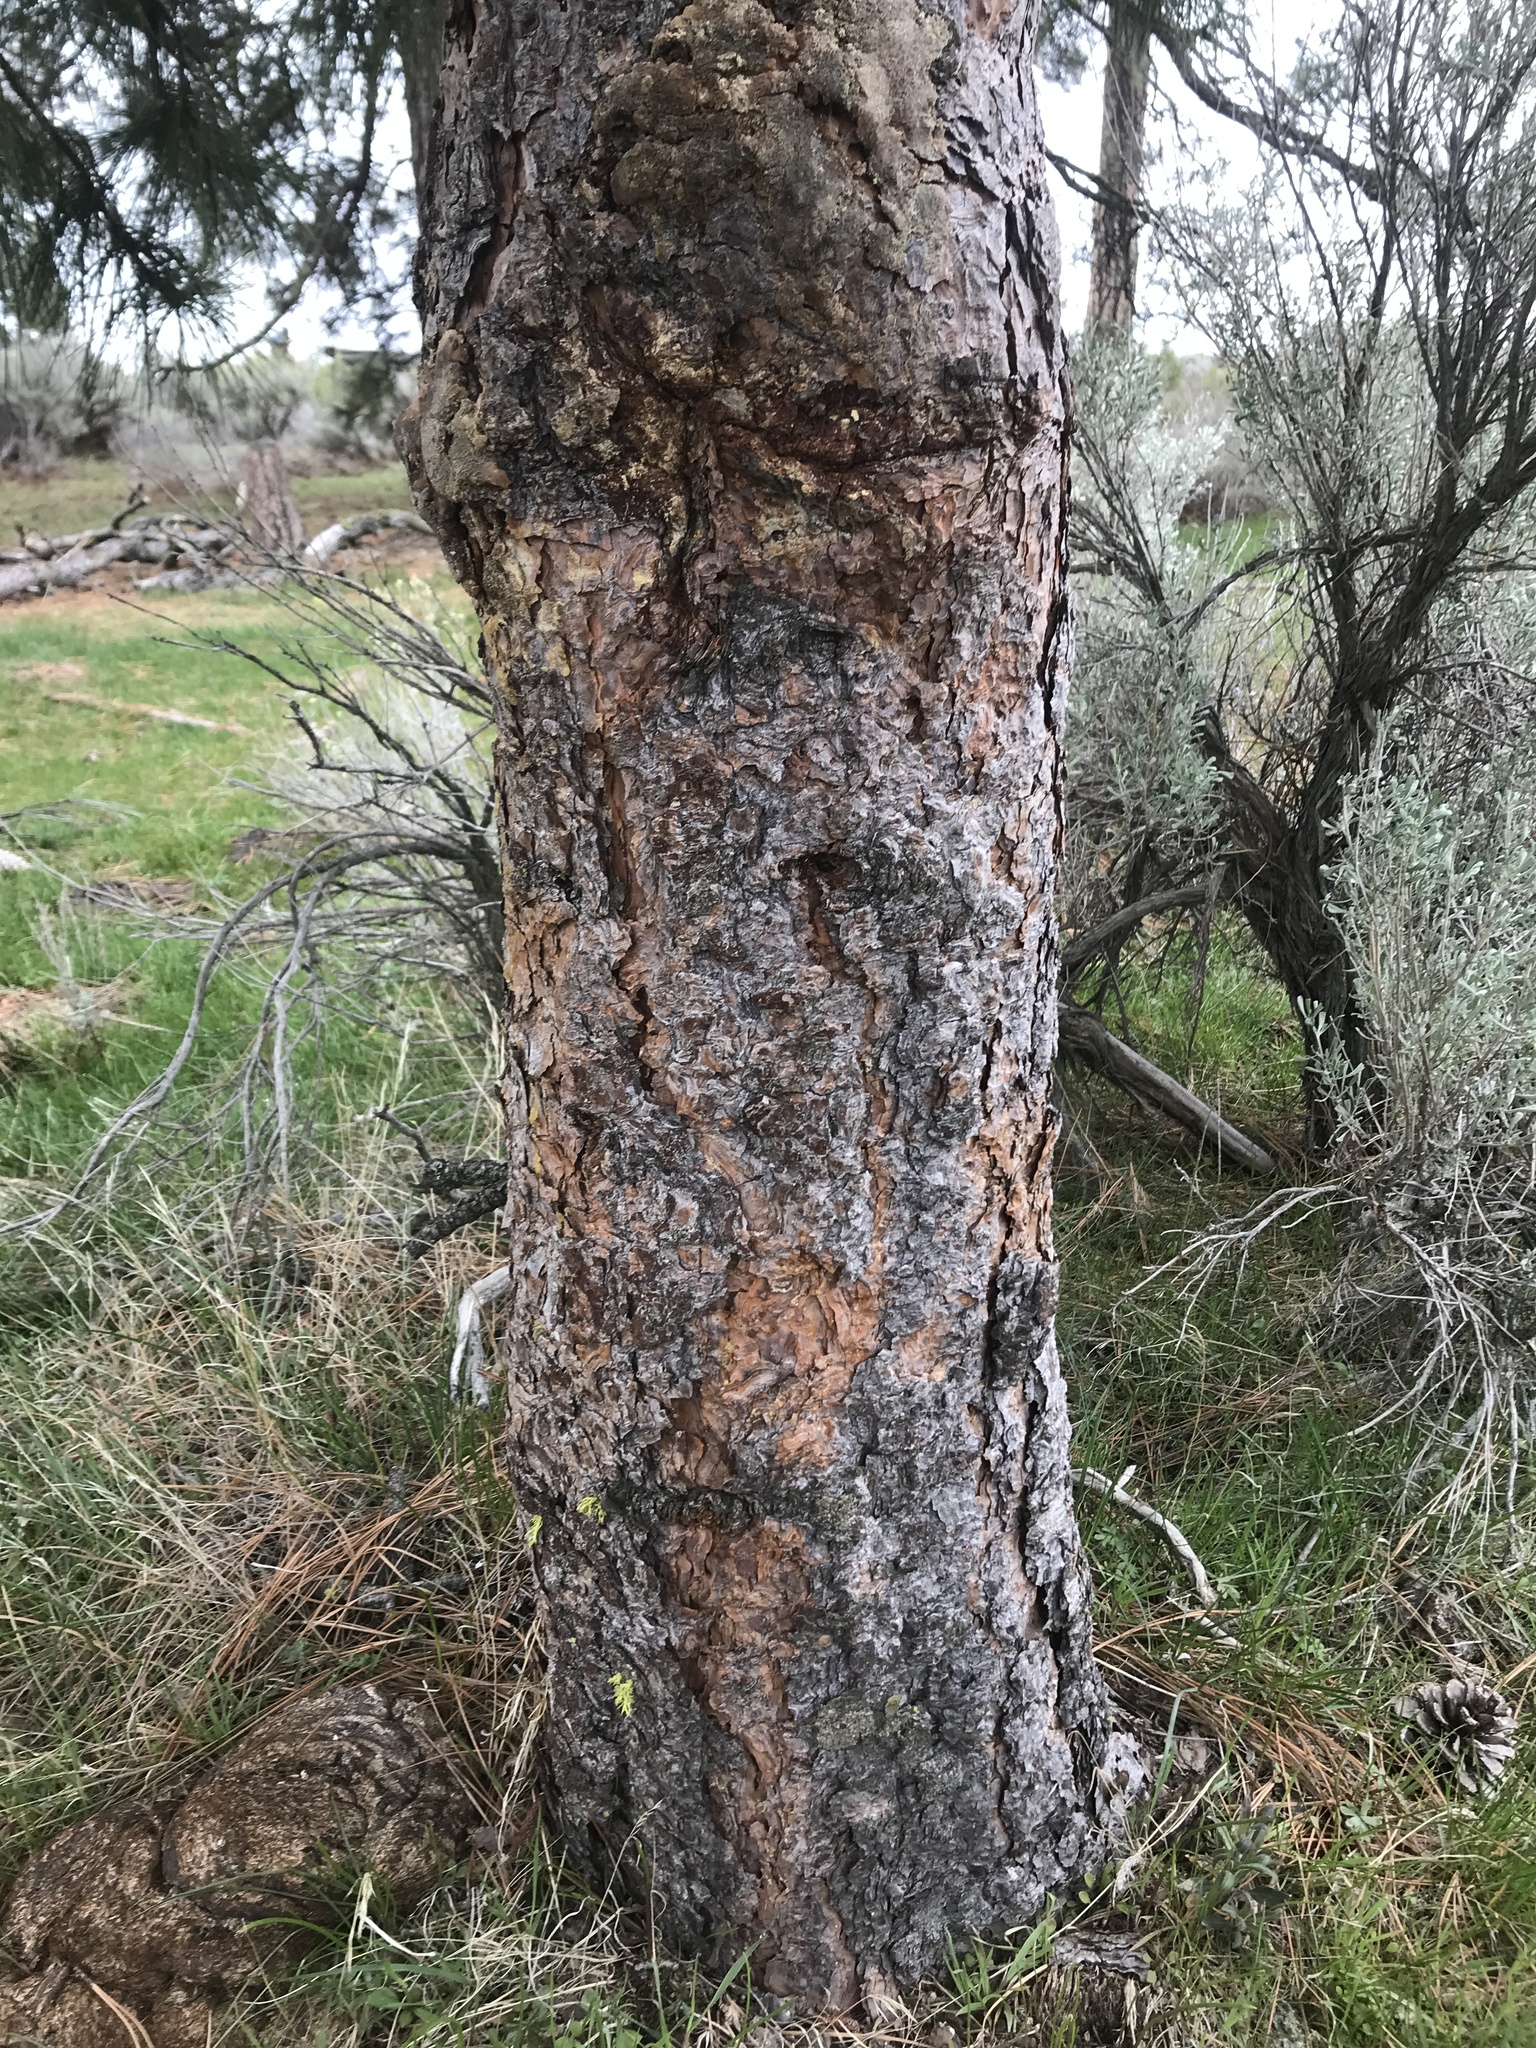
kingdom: Plantae
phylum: Tracheophyta
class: Pinopsida
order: Pinales
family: Pinaceae
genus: Pinus
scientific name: Pinus ponderosa
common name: Western yellow-pine
